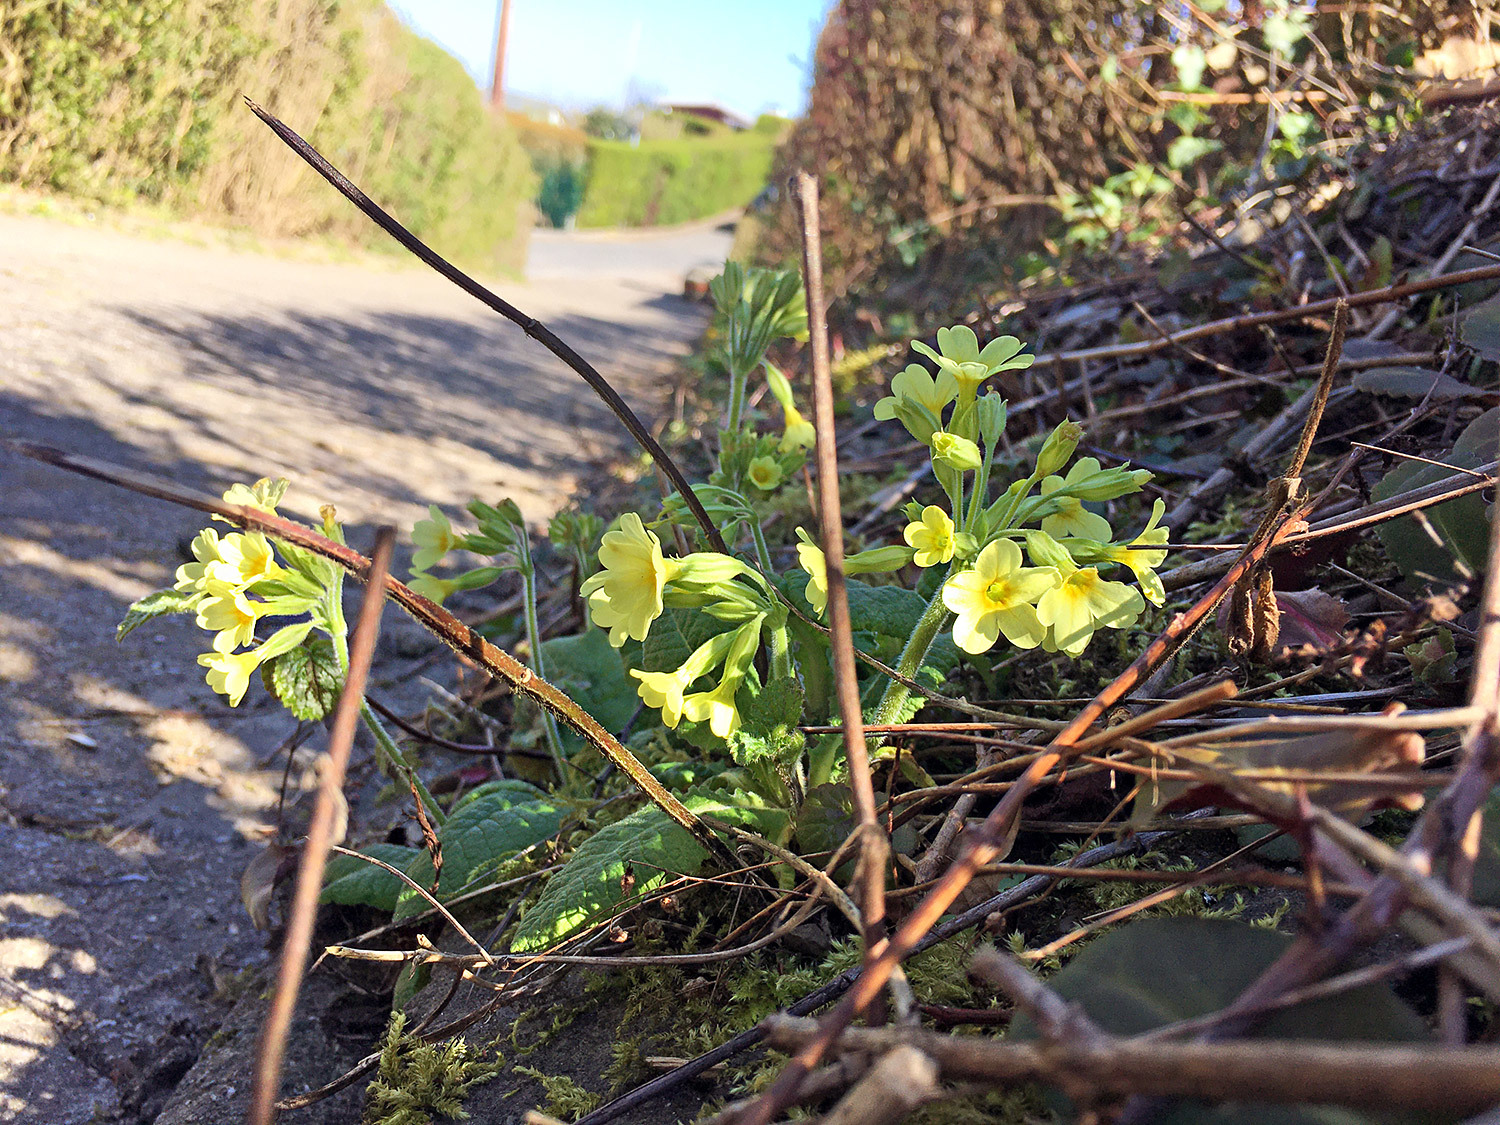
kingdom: Plantae
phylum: Tracheophyta
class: Magnoliopsida
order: Ericales
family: Primulaceae
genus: Primula
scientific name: Primula elatior
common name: Oxlip
